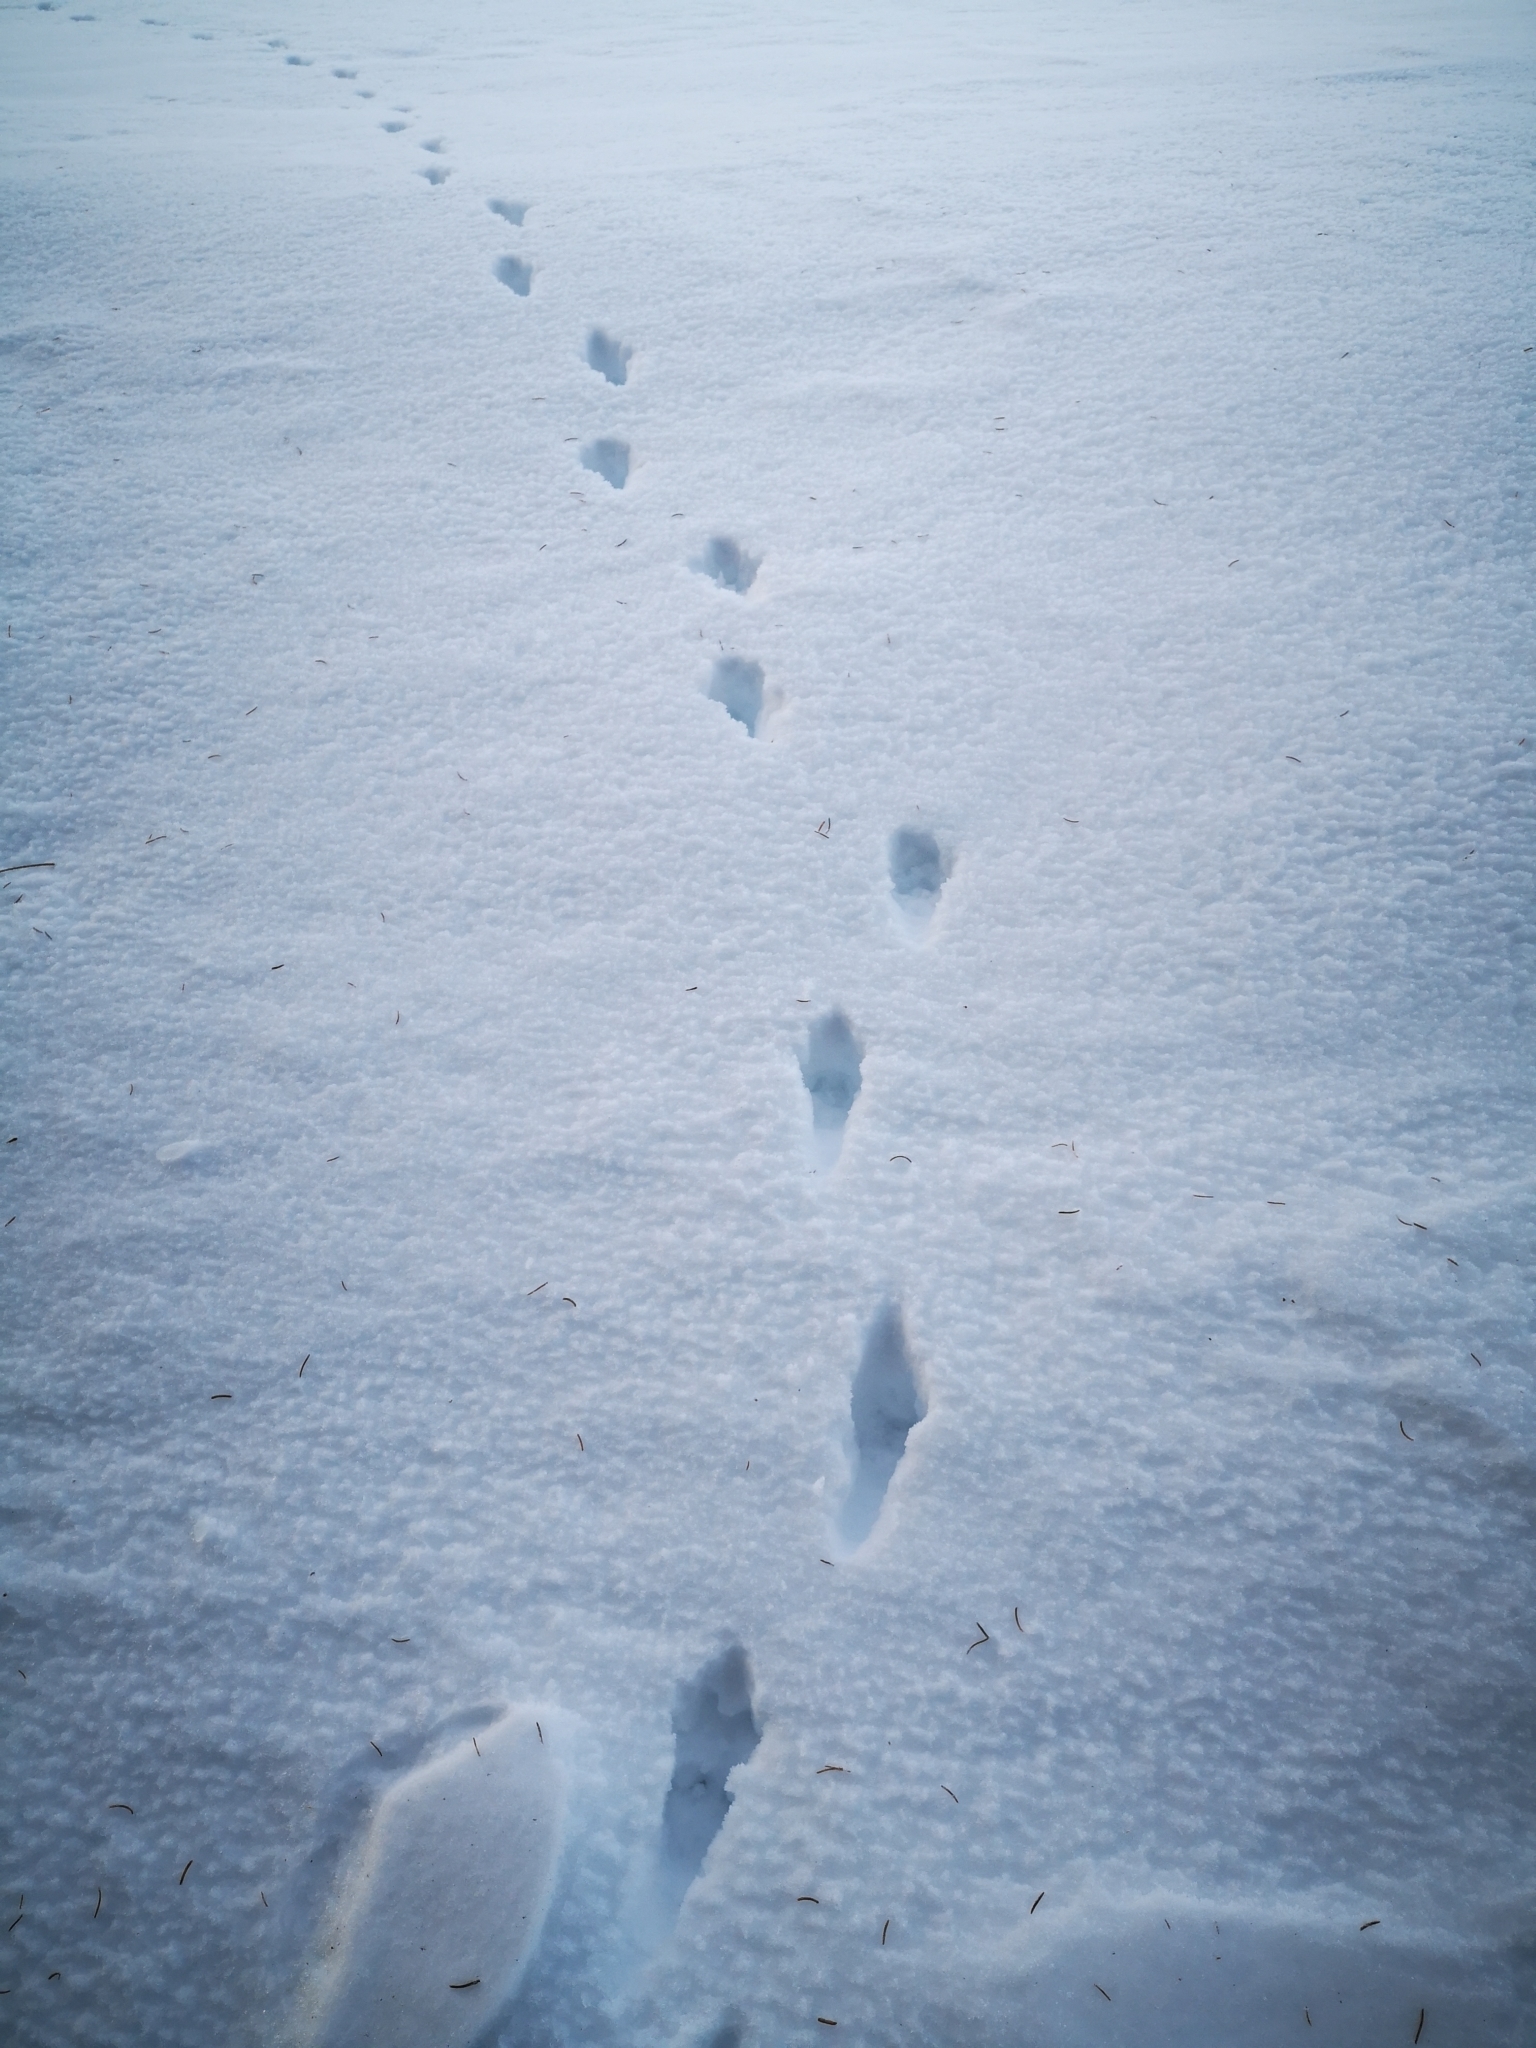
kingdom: Animalia
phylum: Chordata
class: Mammalia
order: Carnivora
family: Canidae
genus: Vulpes
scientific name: Vulpes vulpes
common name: Red fox
